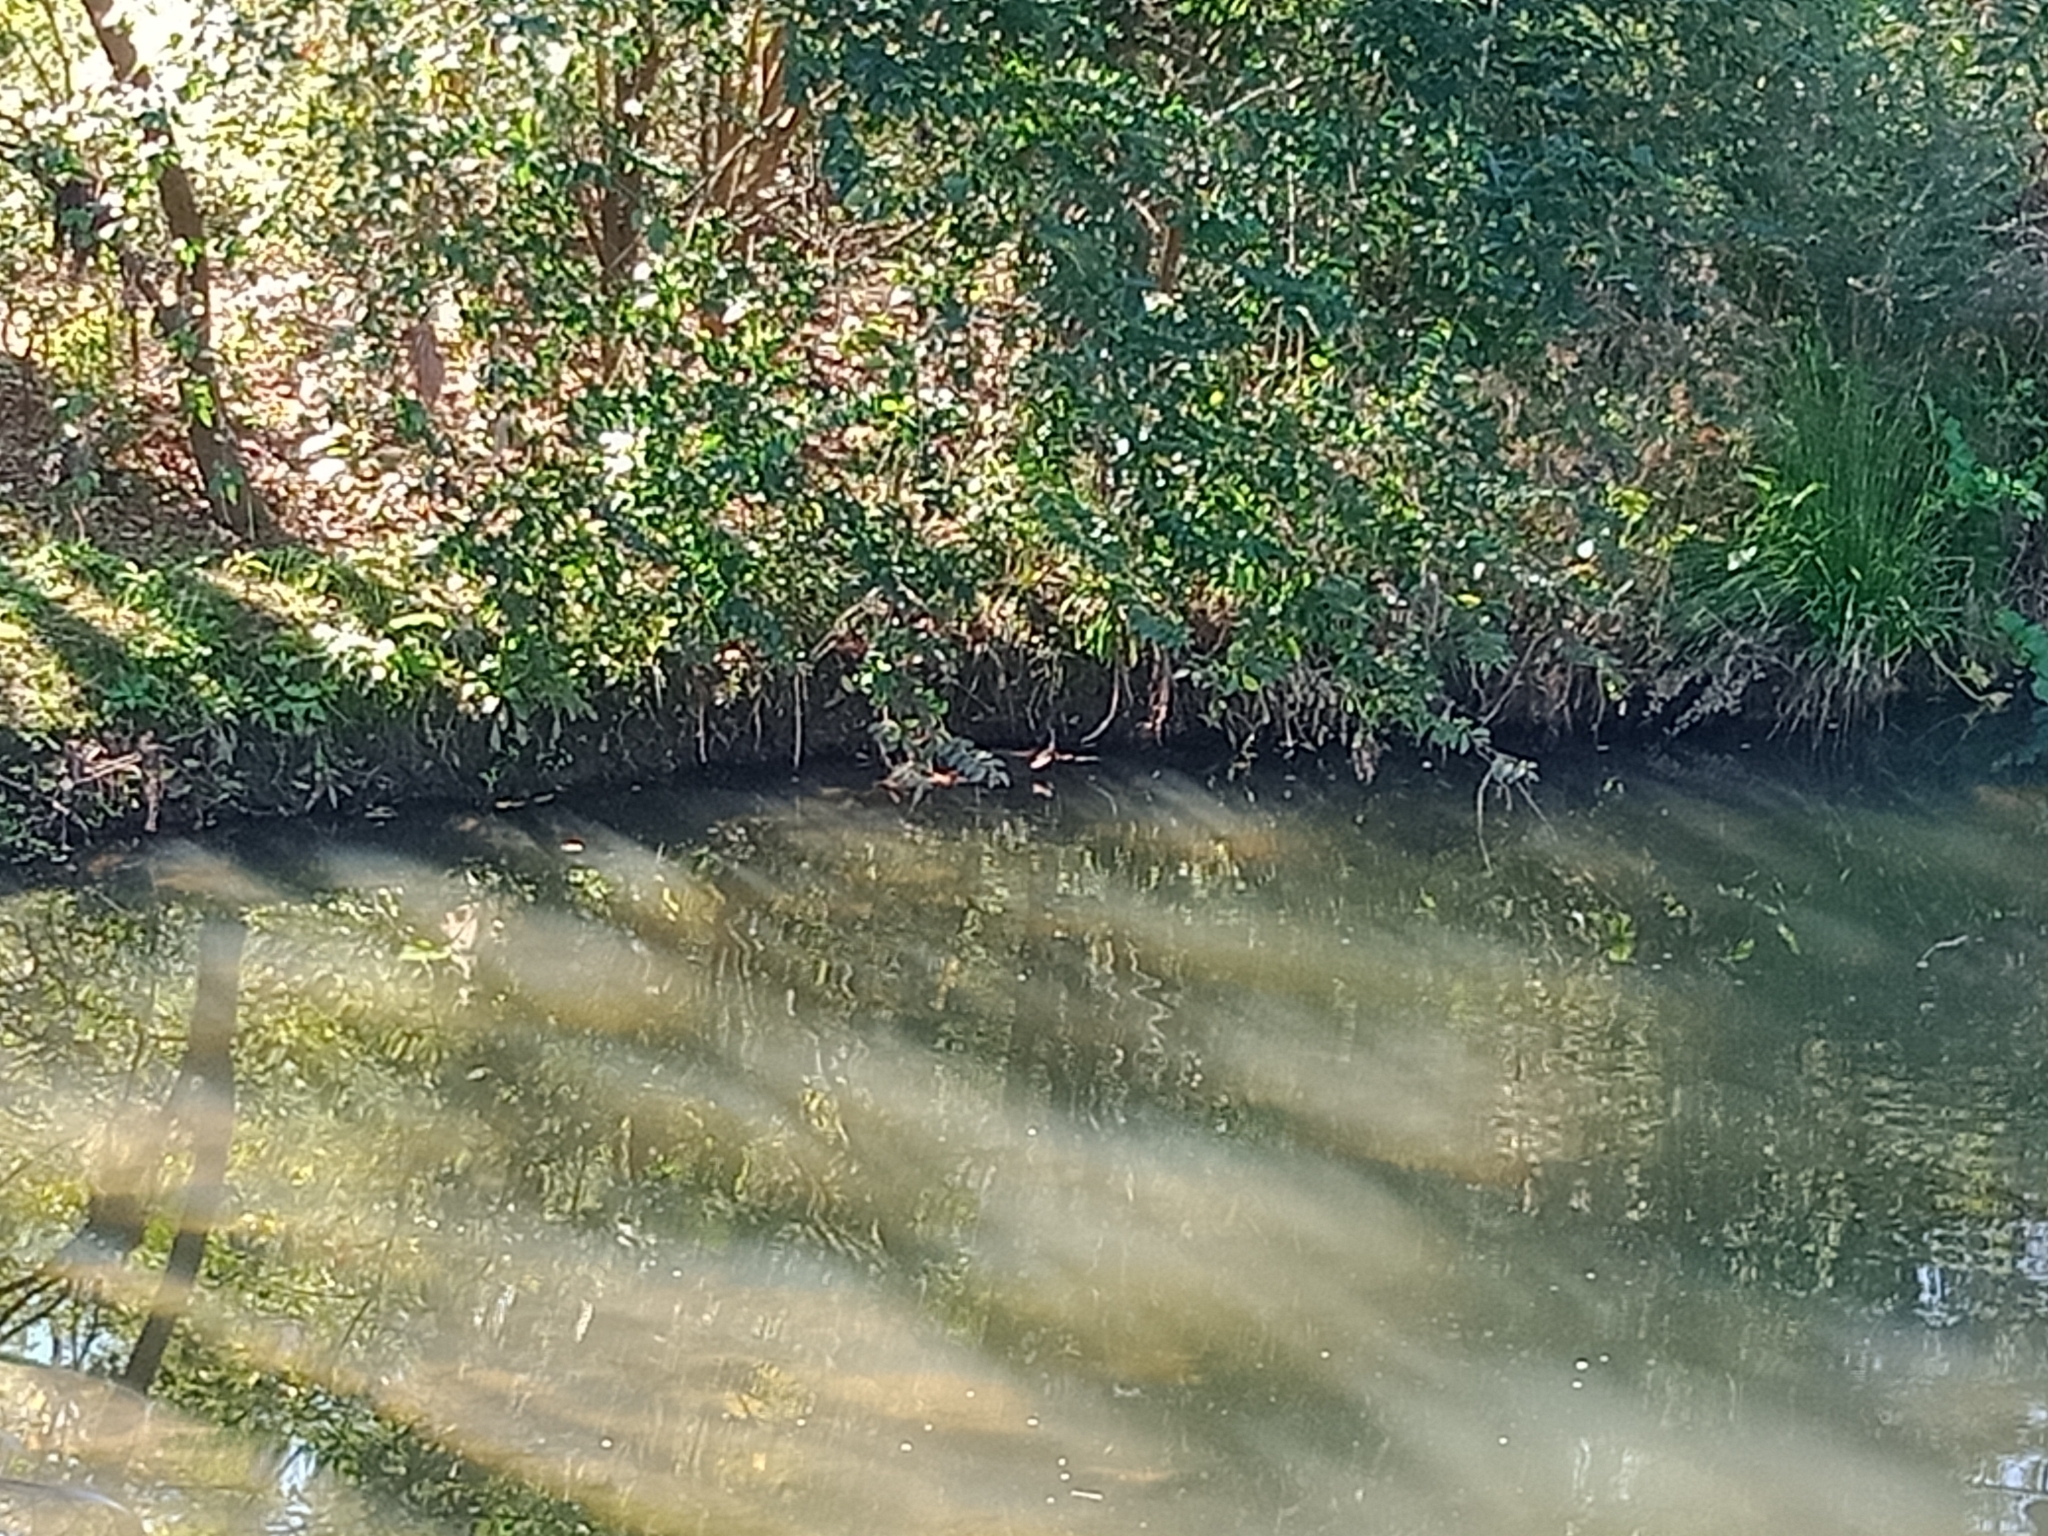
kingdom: Animalia
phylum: Chordata
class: Aves
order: Gruiformes
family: Rallidae
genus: Porphyrio
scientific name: Porphyrio melanotus
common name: Australasian swamphen
